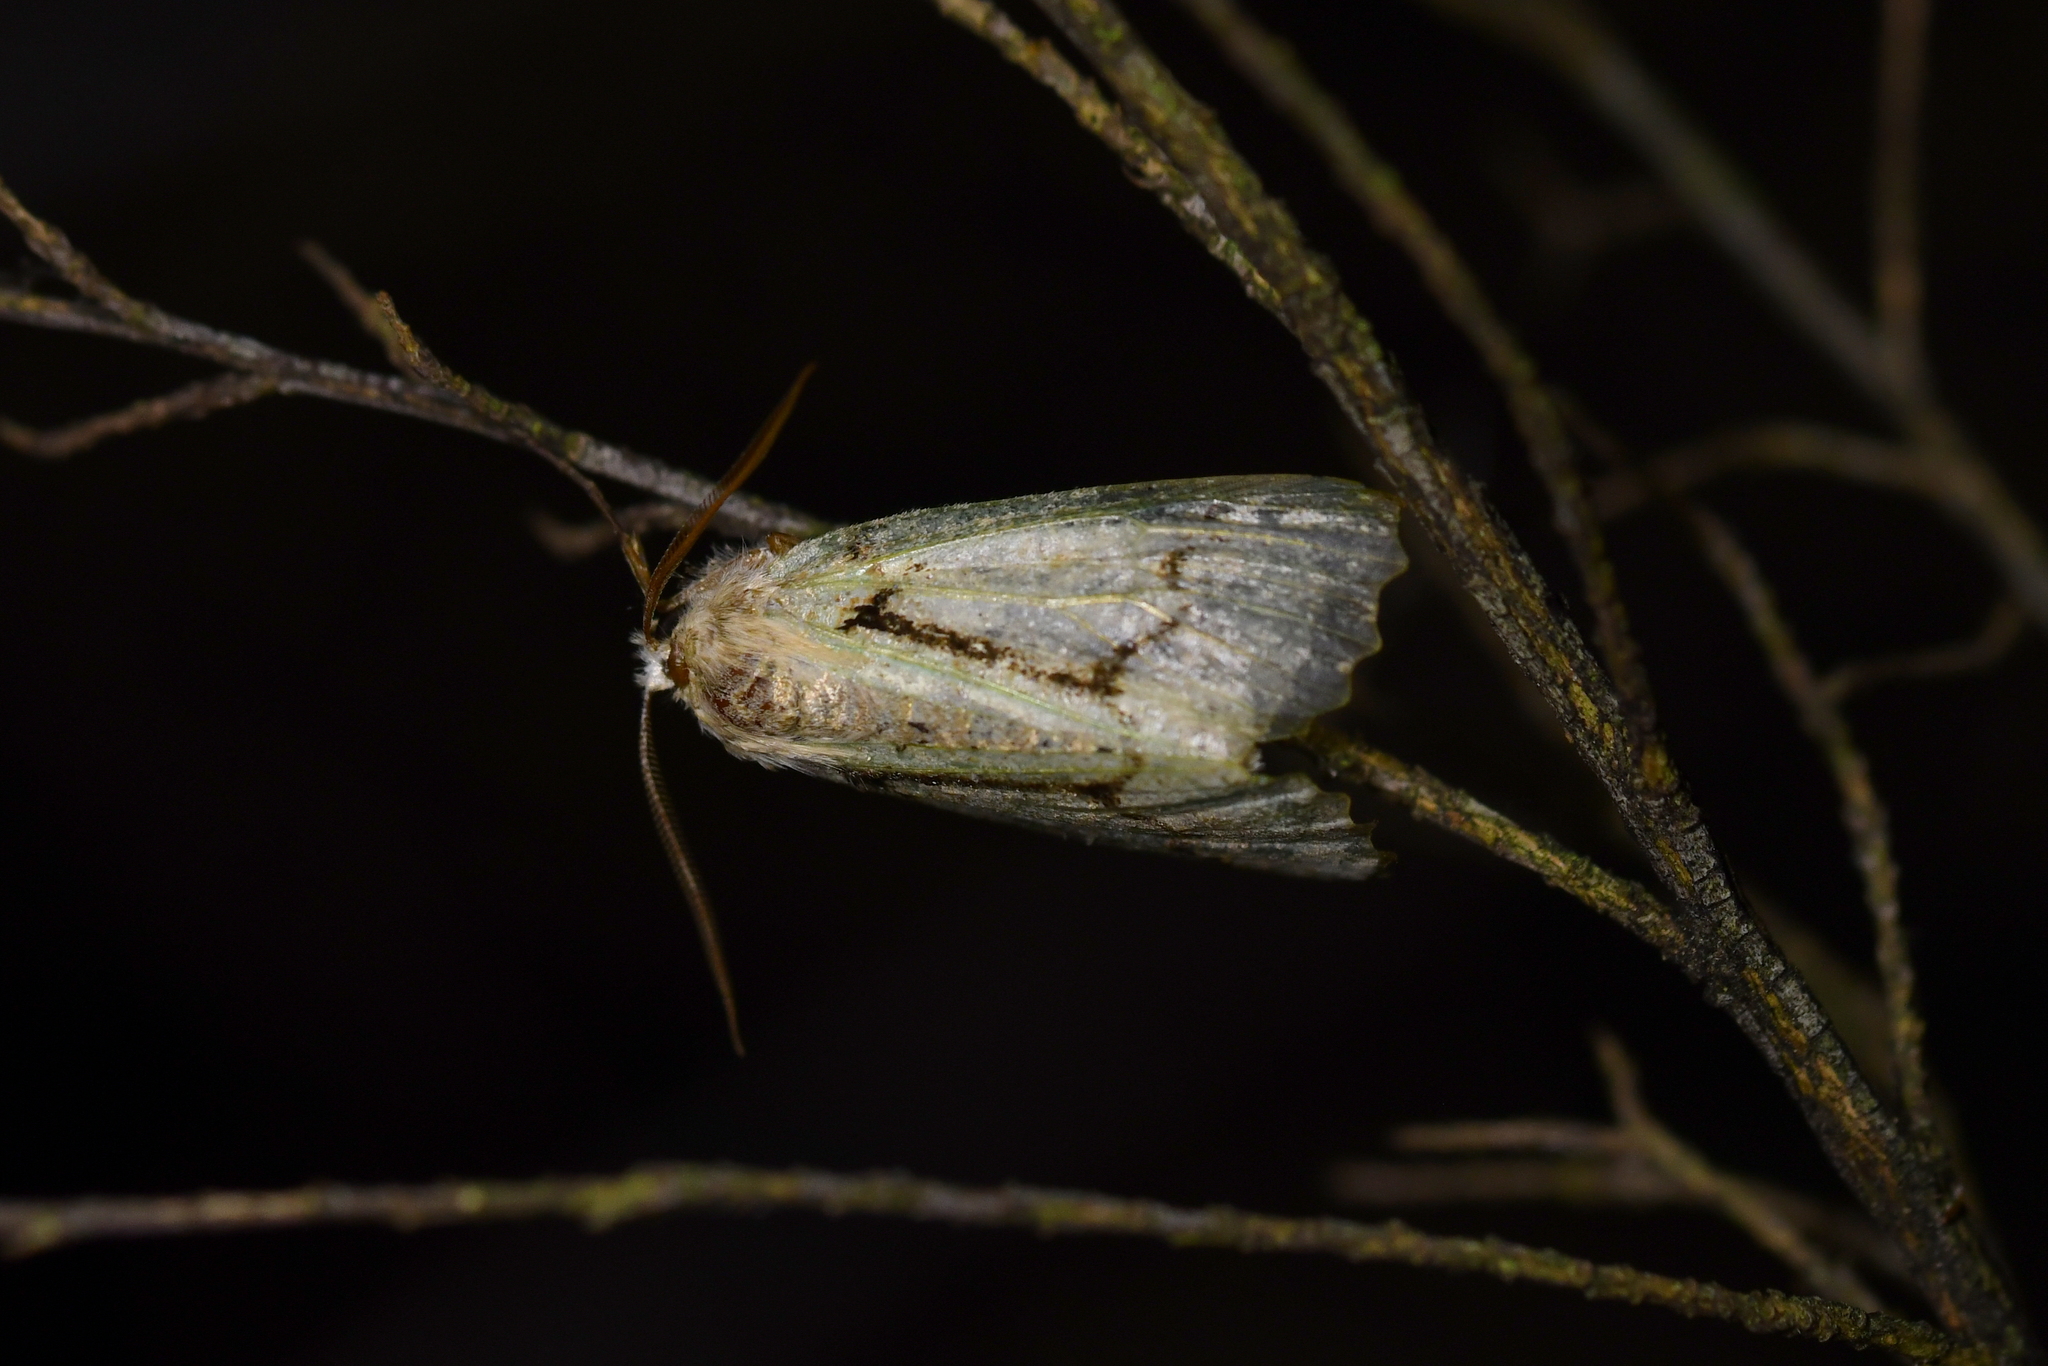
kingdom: Animalia
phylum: Arthropoda
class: Insecta
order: Lepidoptera
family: Geometridae
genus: Declana
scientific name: Declana floccosa
